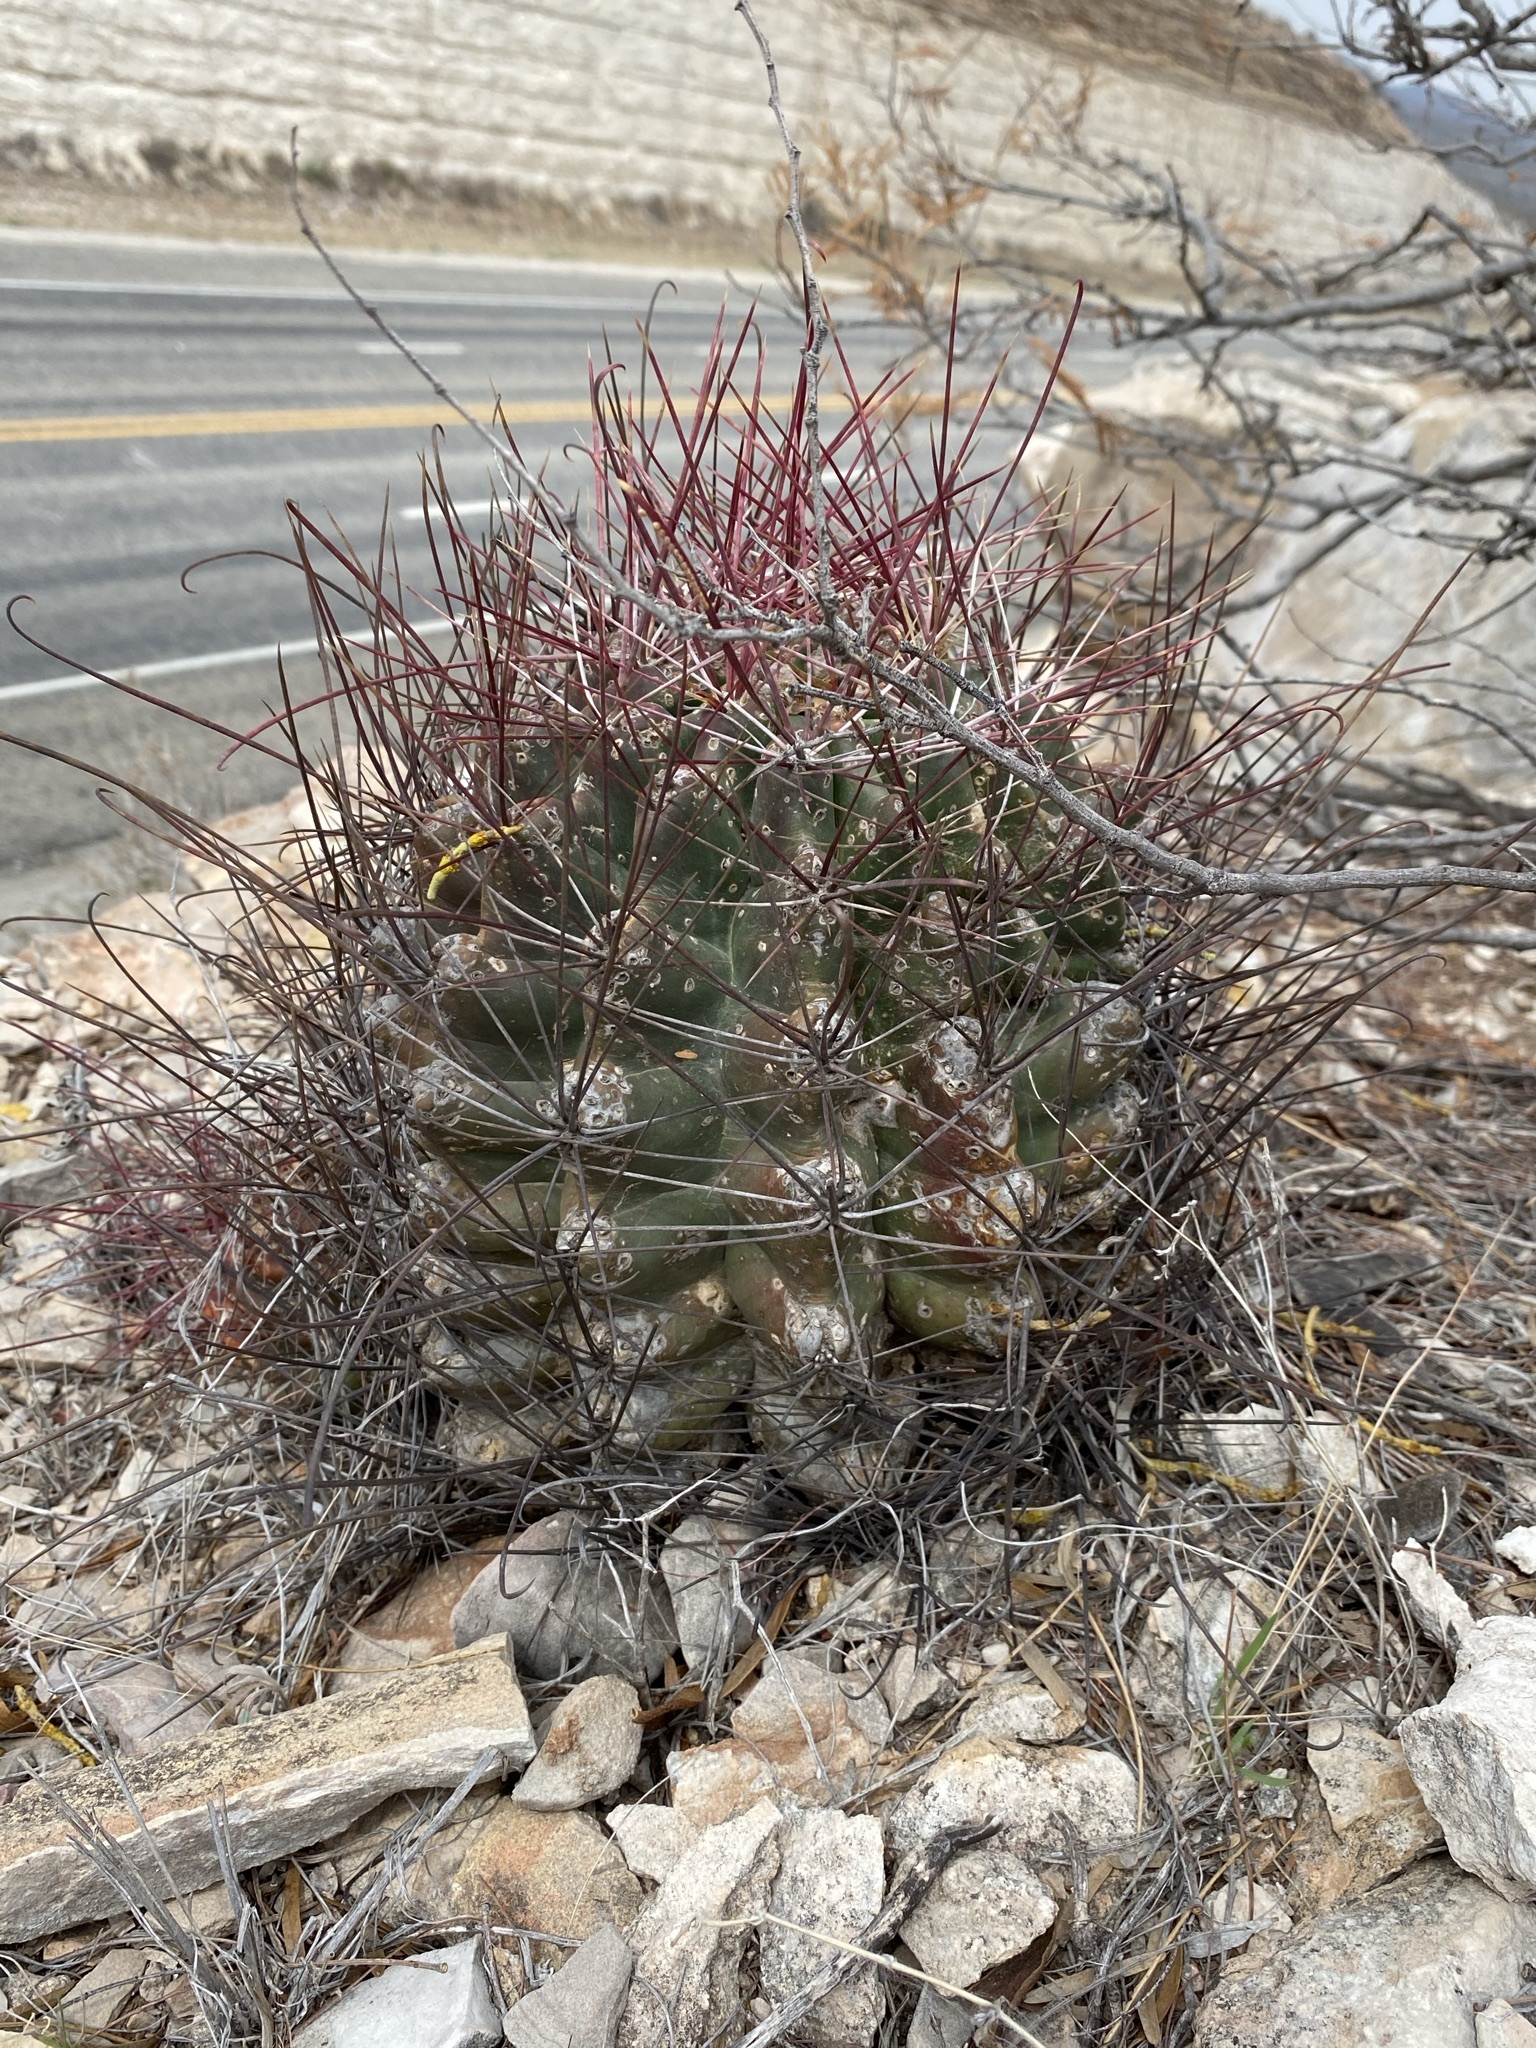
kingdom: Plantae
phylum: Tracheophyta
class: Magnoliopsida
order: Caryophyllales
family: Cactaceae
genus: Bisnaga
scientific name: Bisnaga hamatacantha
